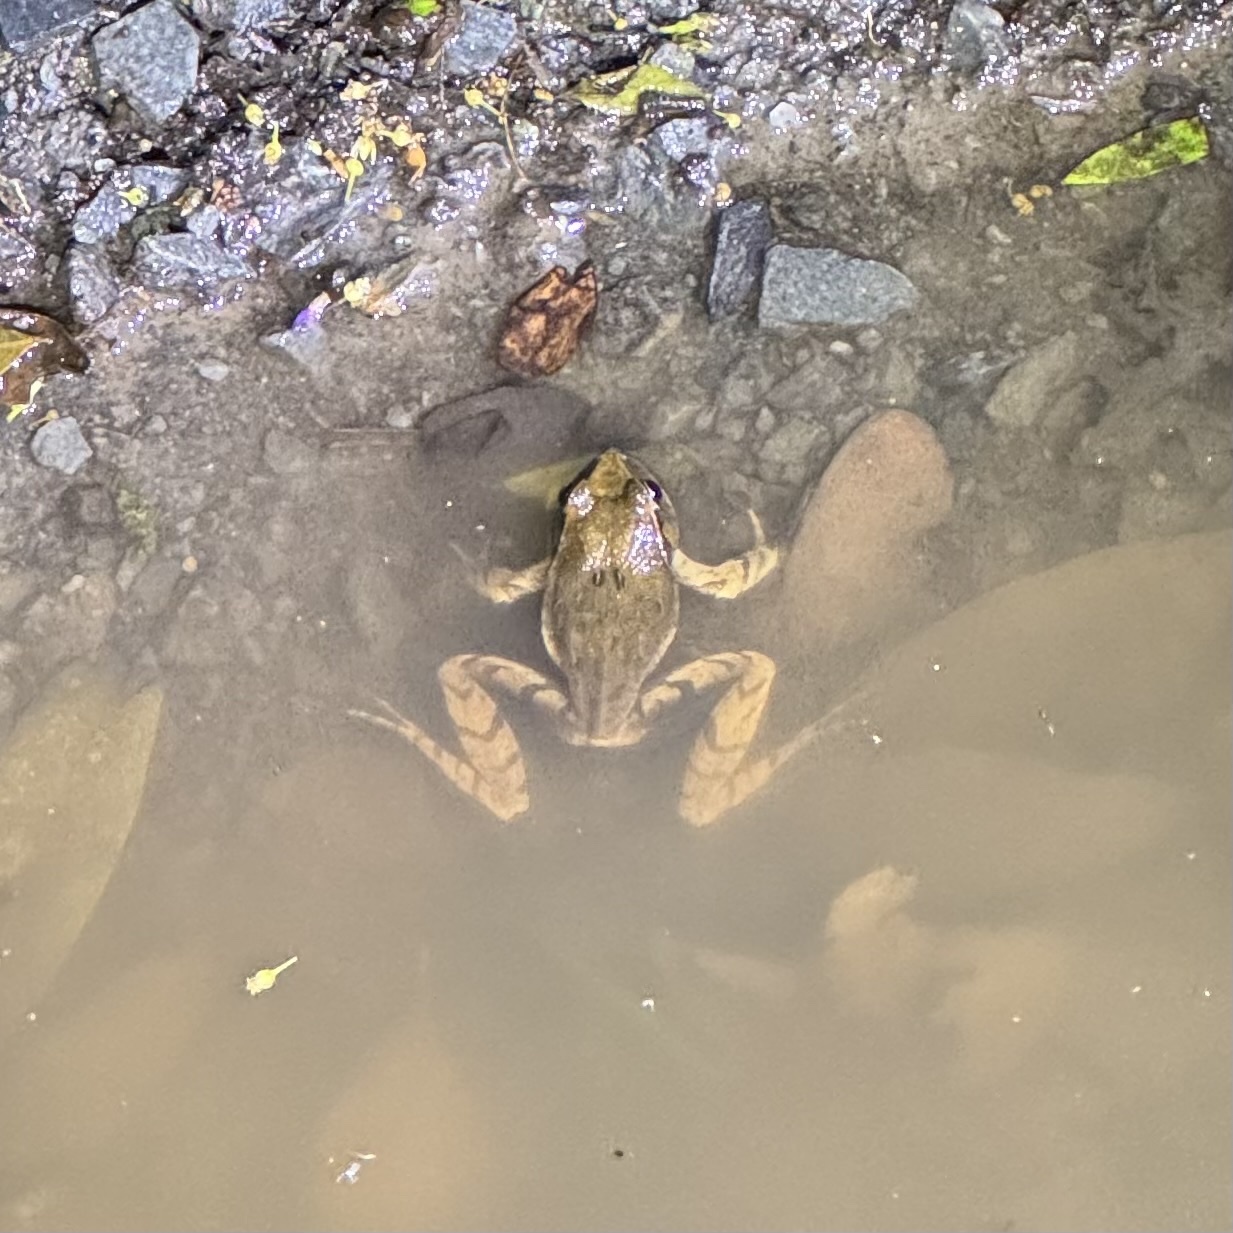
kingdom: Animalia
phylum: Chordata
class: Amphibia
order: Anura
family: Limnodynastidae
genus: Platyplectrum
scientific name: Platyplectrum
